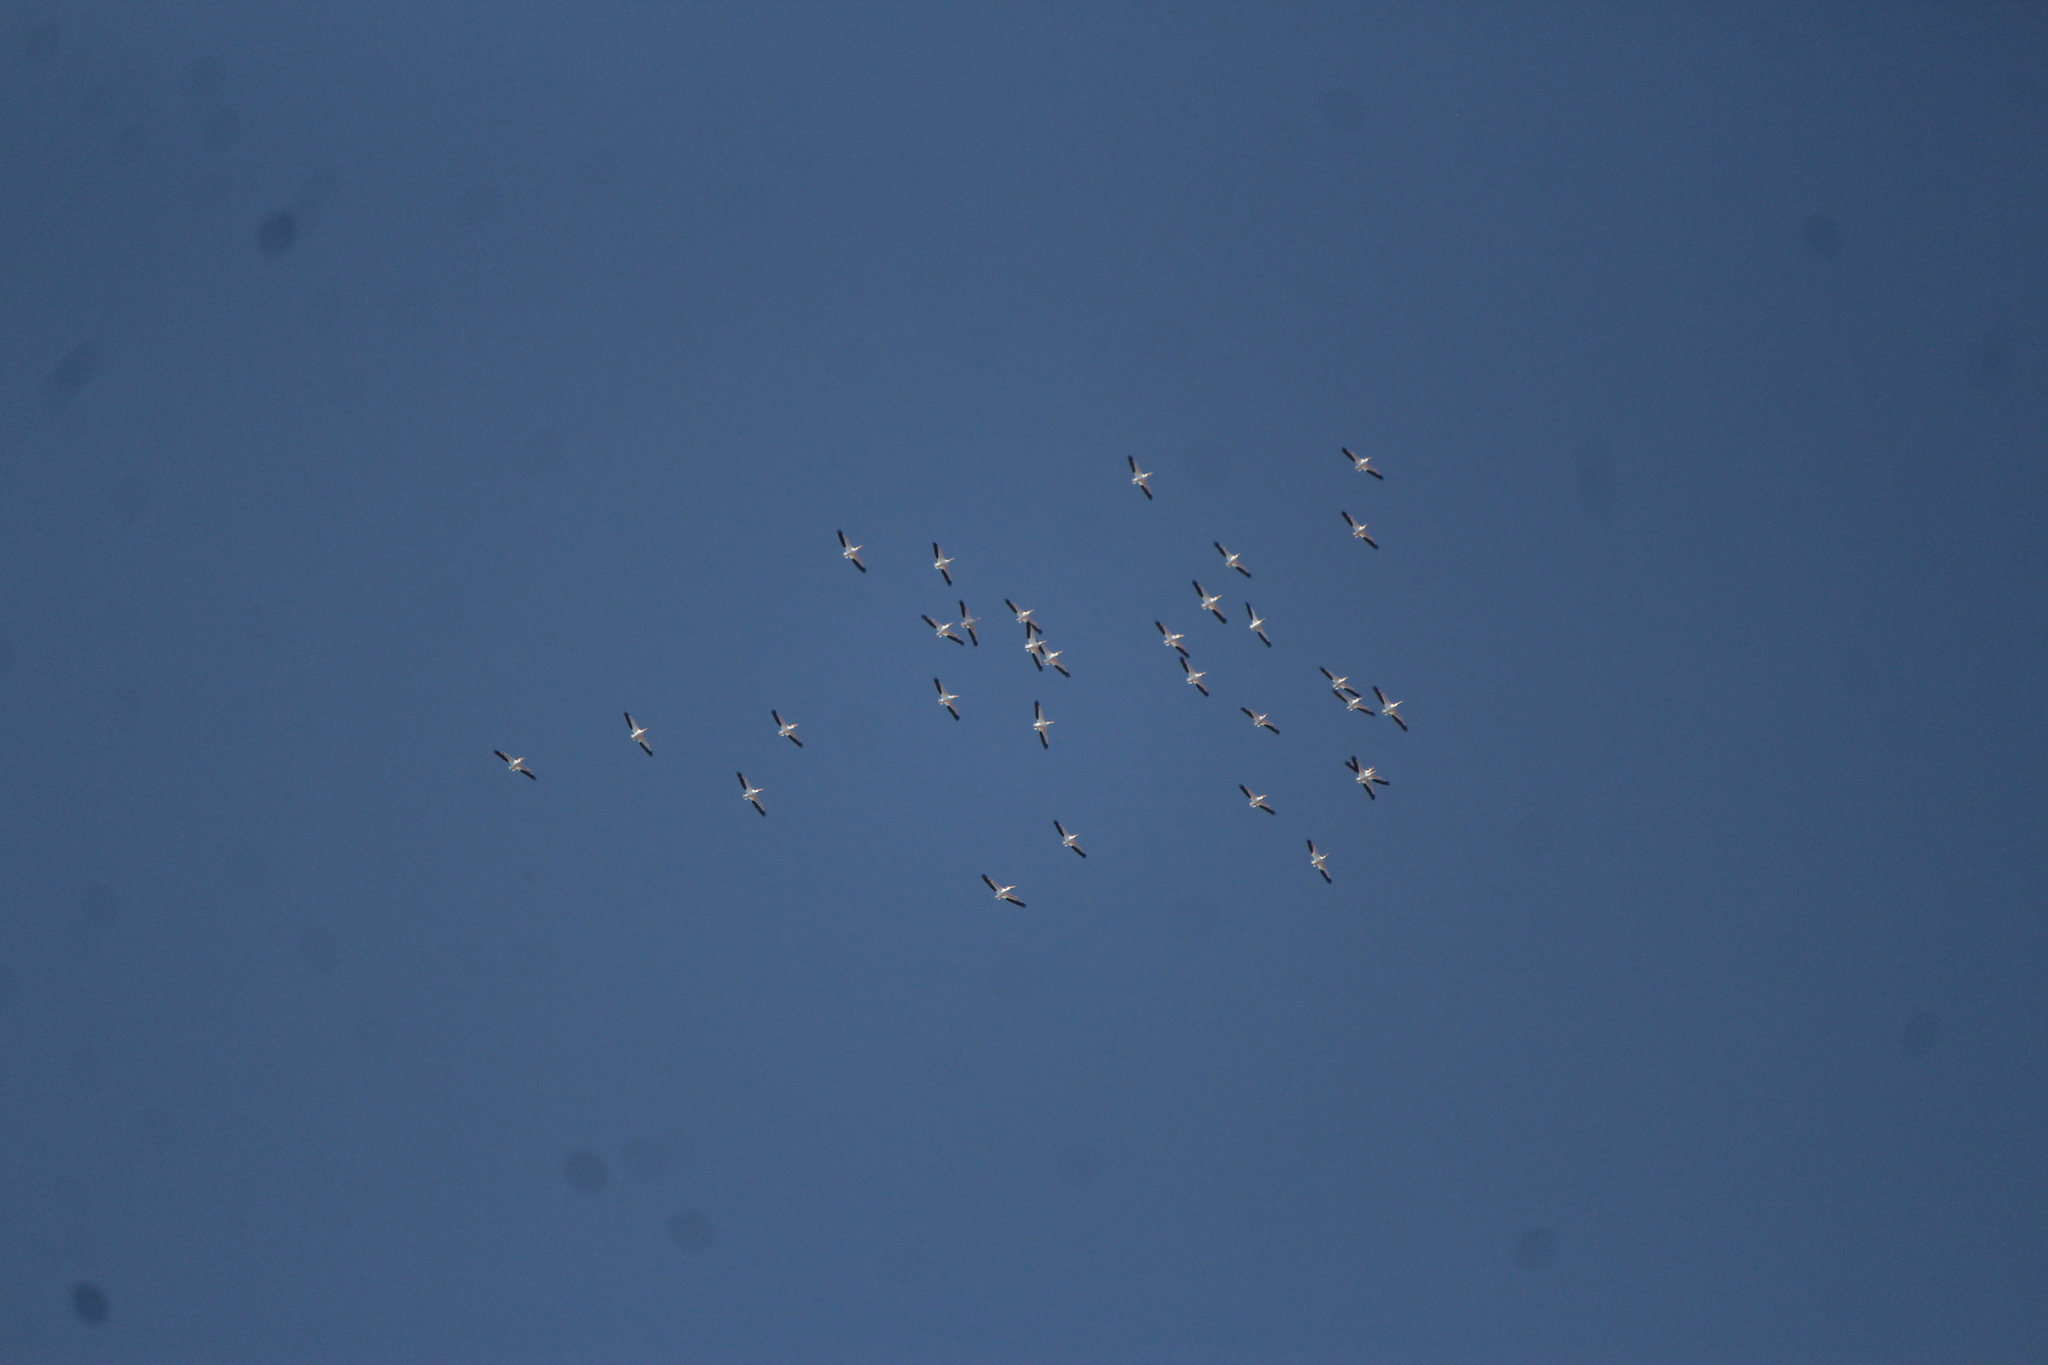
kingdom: Animalia
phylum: Chordata
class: Aves
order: Pelecaniformes
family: Pelecanidae
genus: Pelecanus
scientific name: Pelecanus erythrorhynchos
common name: American white pelican
